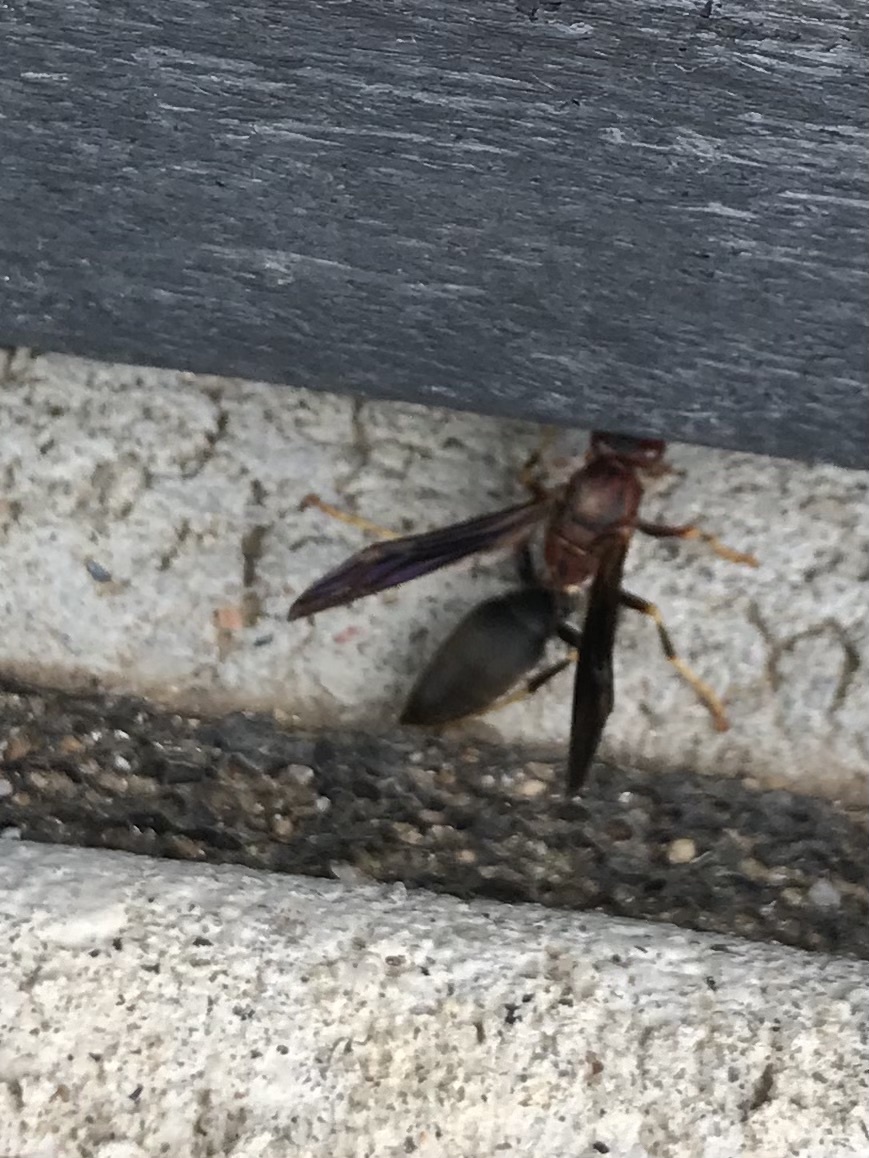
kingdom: Animalia
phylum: Arthropoda
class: Insecta
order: Hymenoptera
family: Eumenidae
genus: Polistes
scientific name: Polistes metricus
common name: Metric paper wasp
